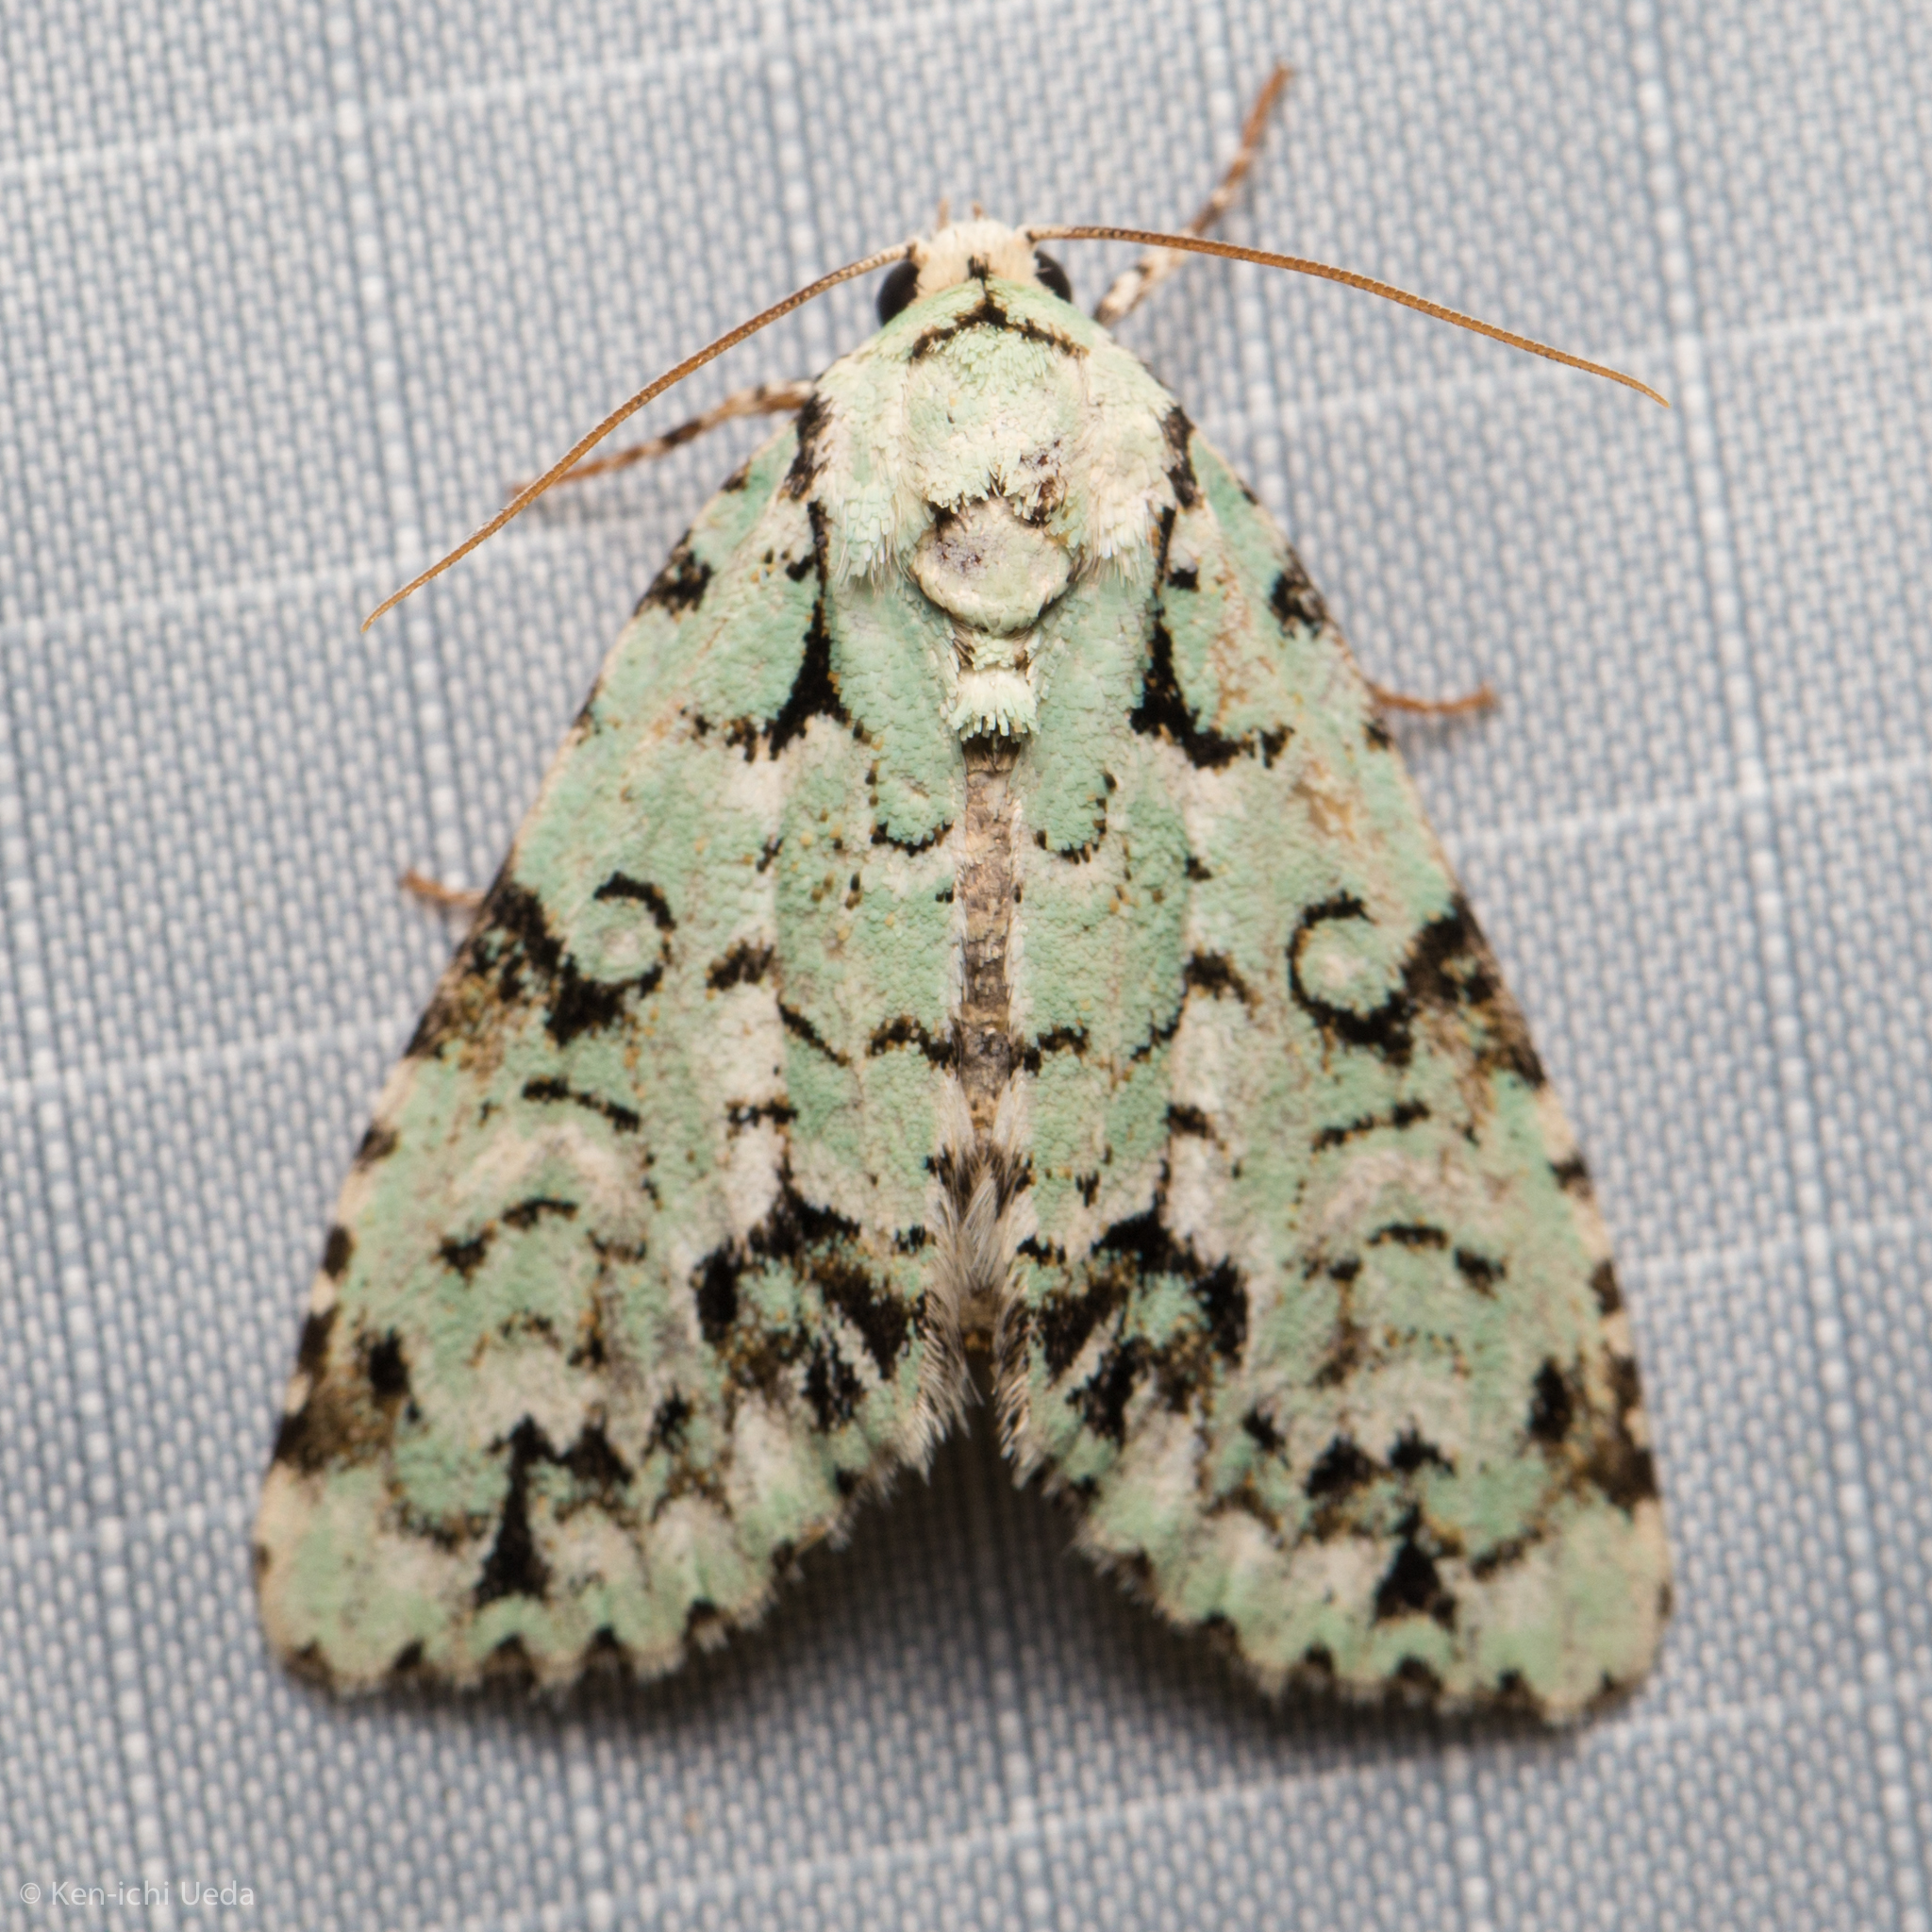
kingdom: Animalia
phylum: Arthropoda
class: Insecta
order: Lepidoptera
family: Noctuidae
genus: Chloronycta
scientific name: Chloronycta tybo
